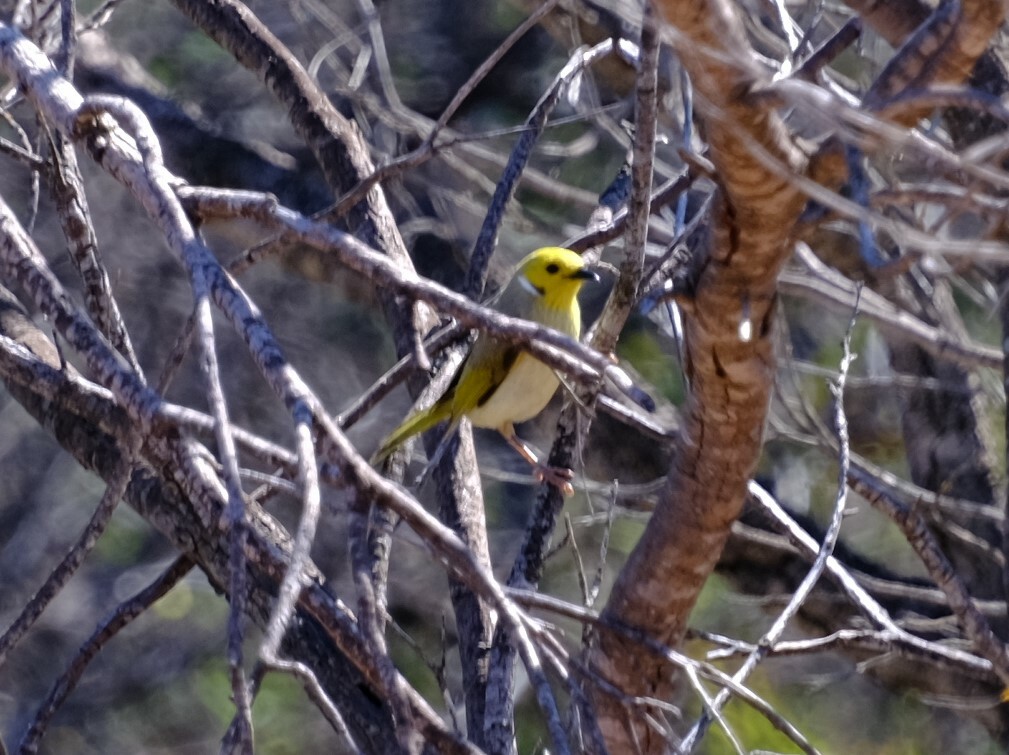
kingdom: Animalia
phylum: Chordata
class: Aves
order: Passeriformes
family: Meliphagidae
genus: Ptilotula
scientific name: Ptilotula penicillata
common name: White-plumed honeyeater
